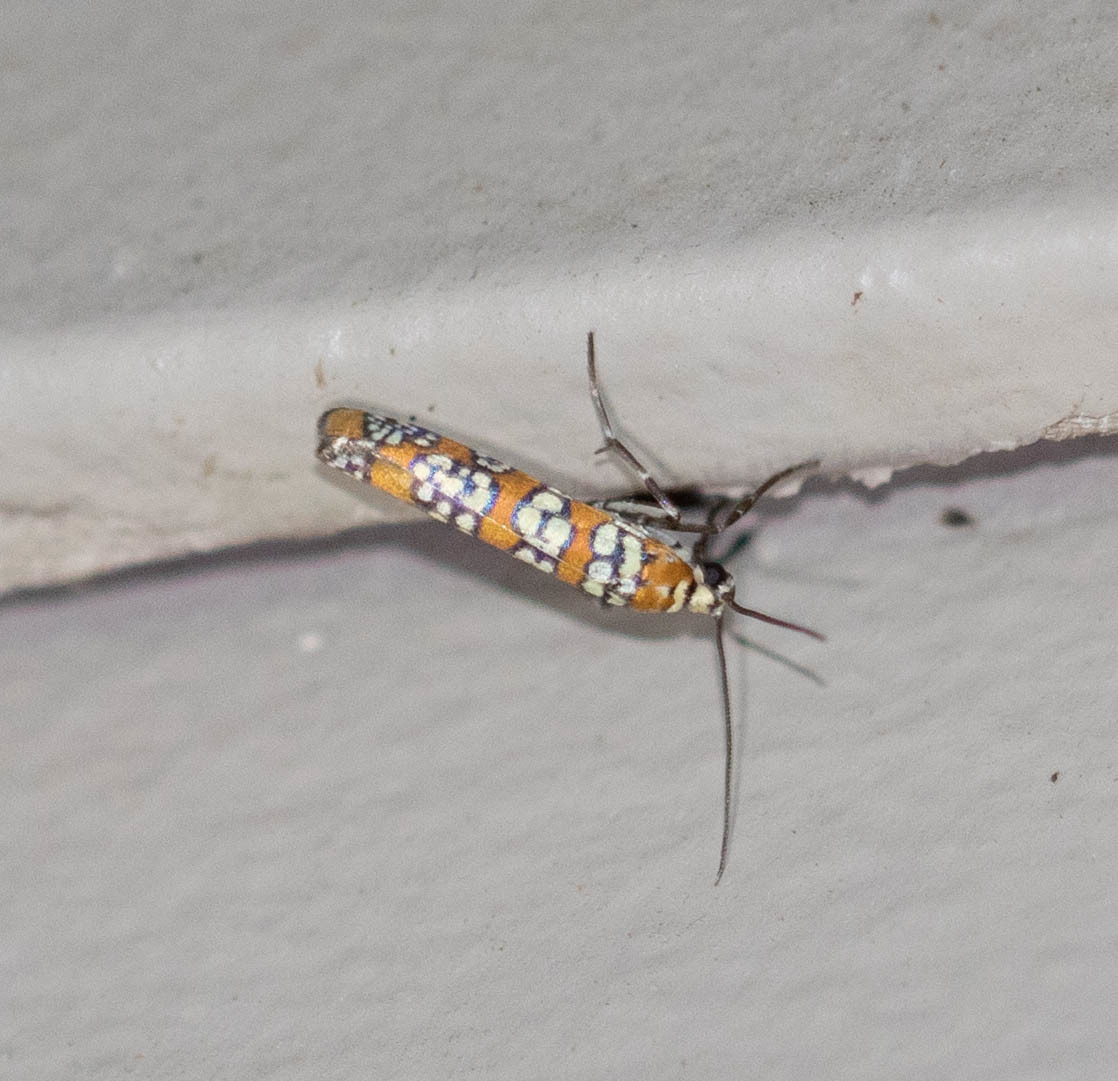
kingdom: Animalia
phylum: Arthropoda
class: Insecta
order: Lepidoptera
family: Attevidae
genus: Atteva
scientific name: Atteva punctella
